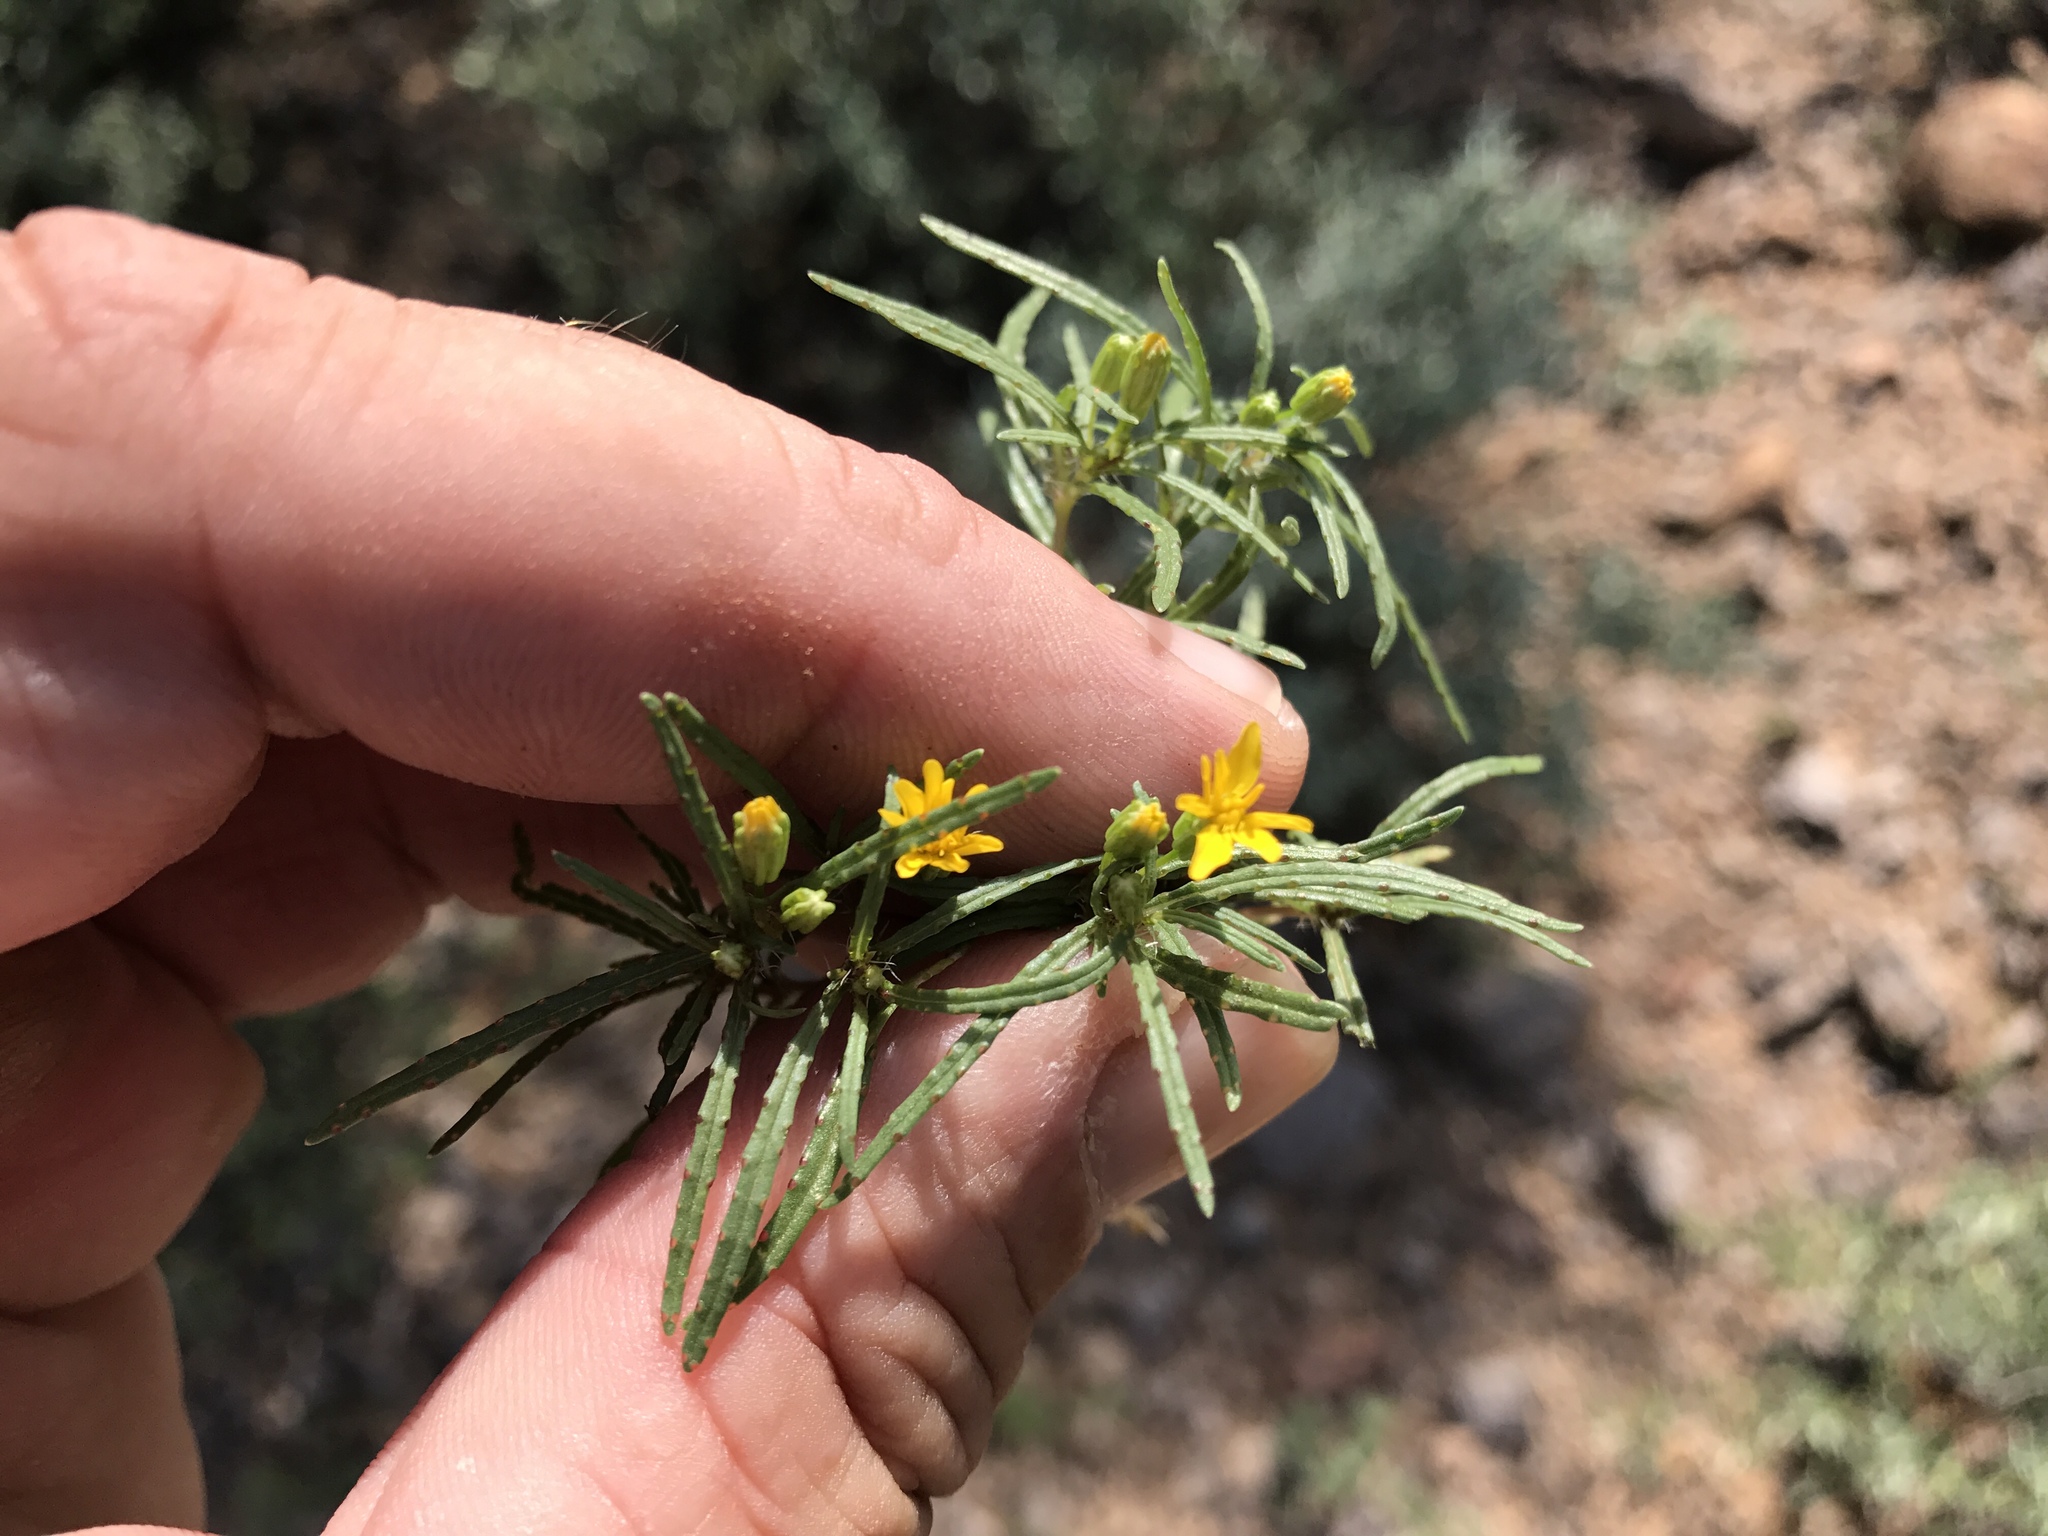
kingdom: Plantae
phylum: Tracheophyta
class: Magnoliopsida
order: Asterales
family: Asteraceae
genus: Pectis
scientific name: Pectis papposa
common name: Many-bristle chinchweed
